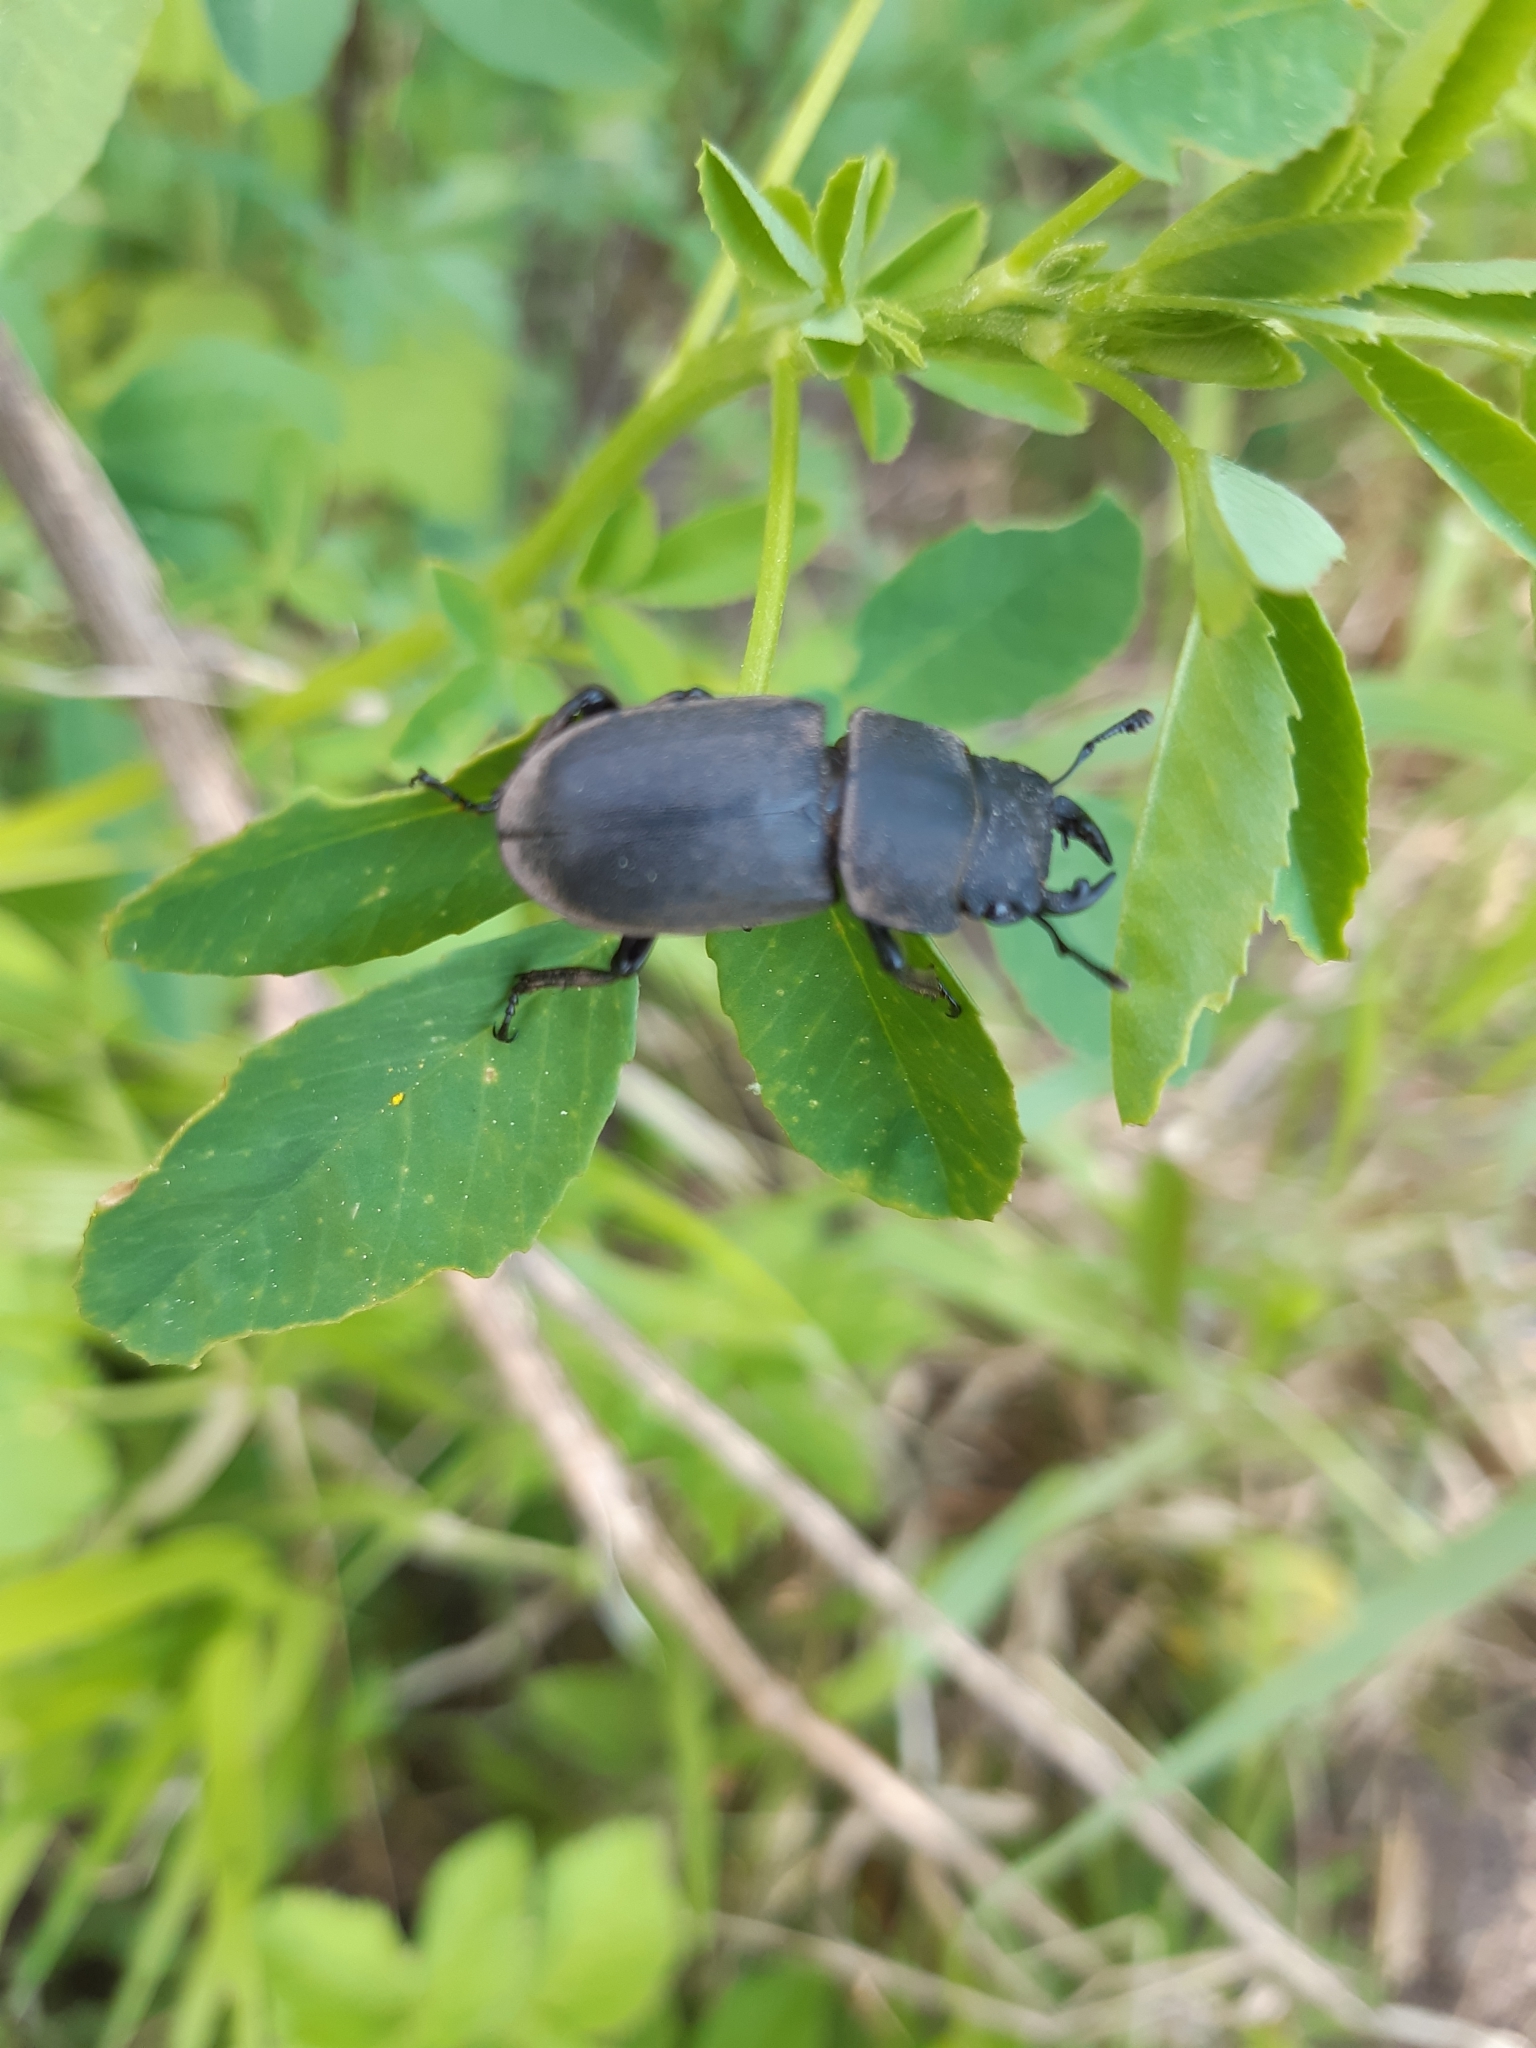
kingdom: Animalia
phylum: Arthropoda
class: Insecta
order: Coleoptera
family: Lucanidae
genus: Dorcus
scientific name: Dorcus parallelipipedus
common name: Lesser stag beetle
